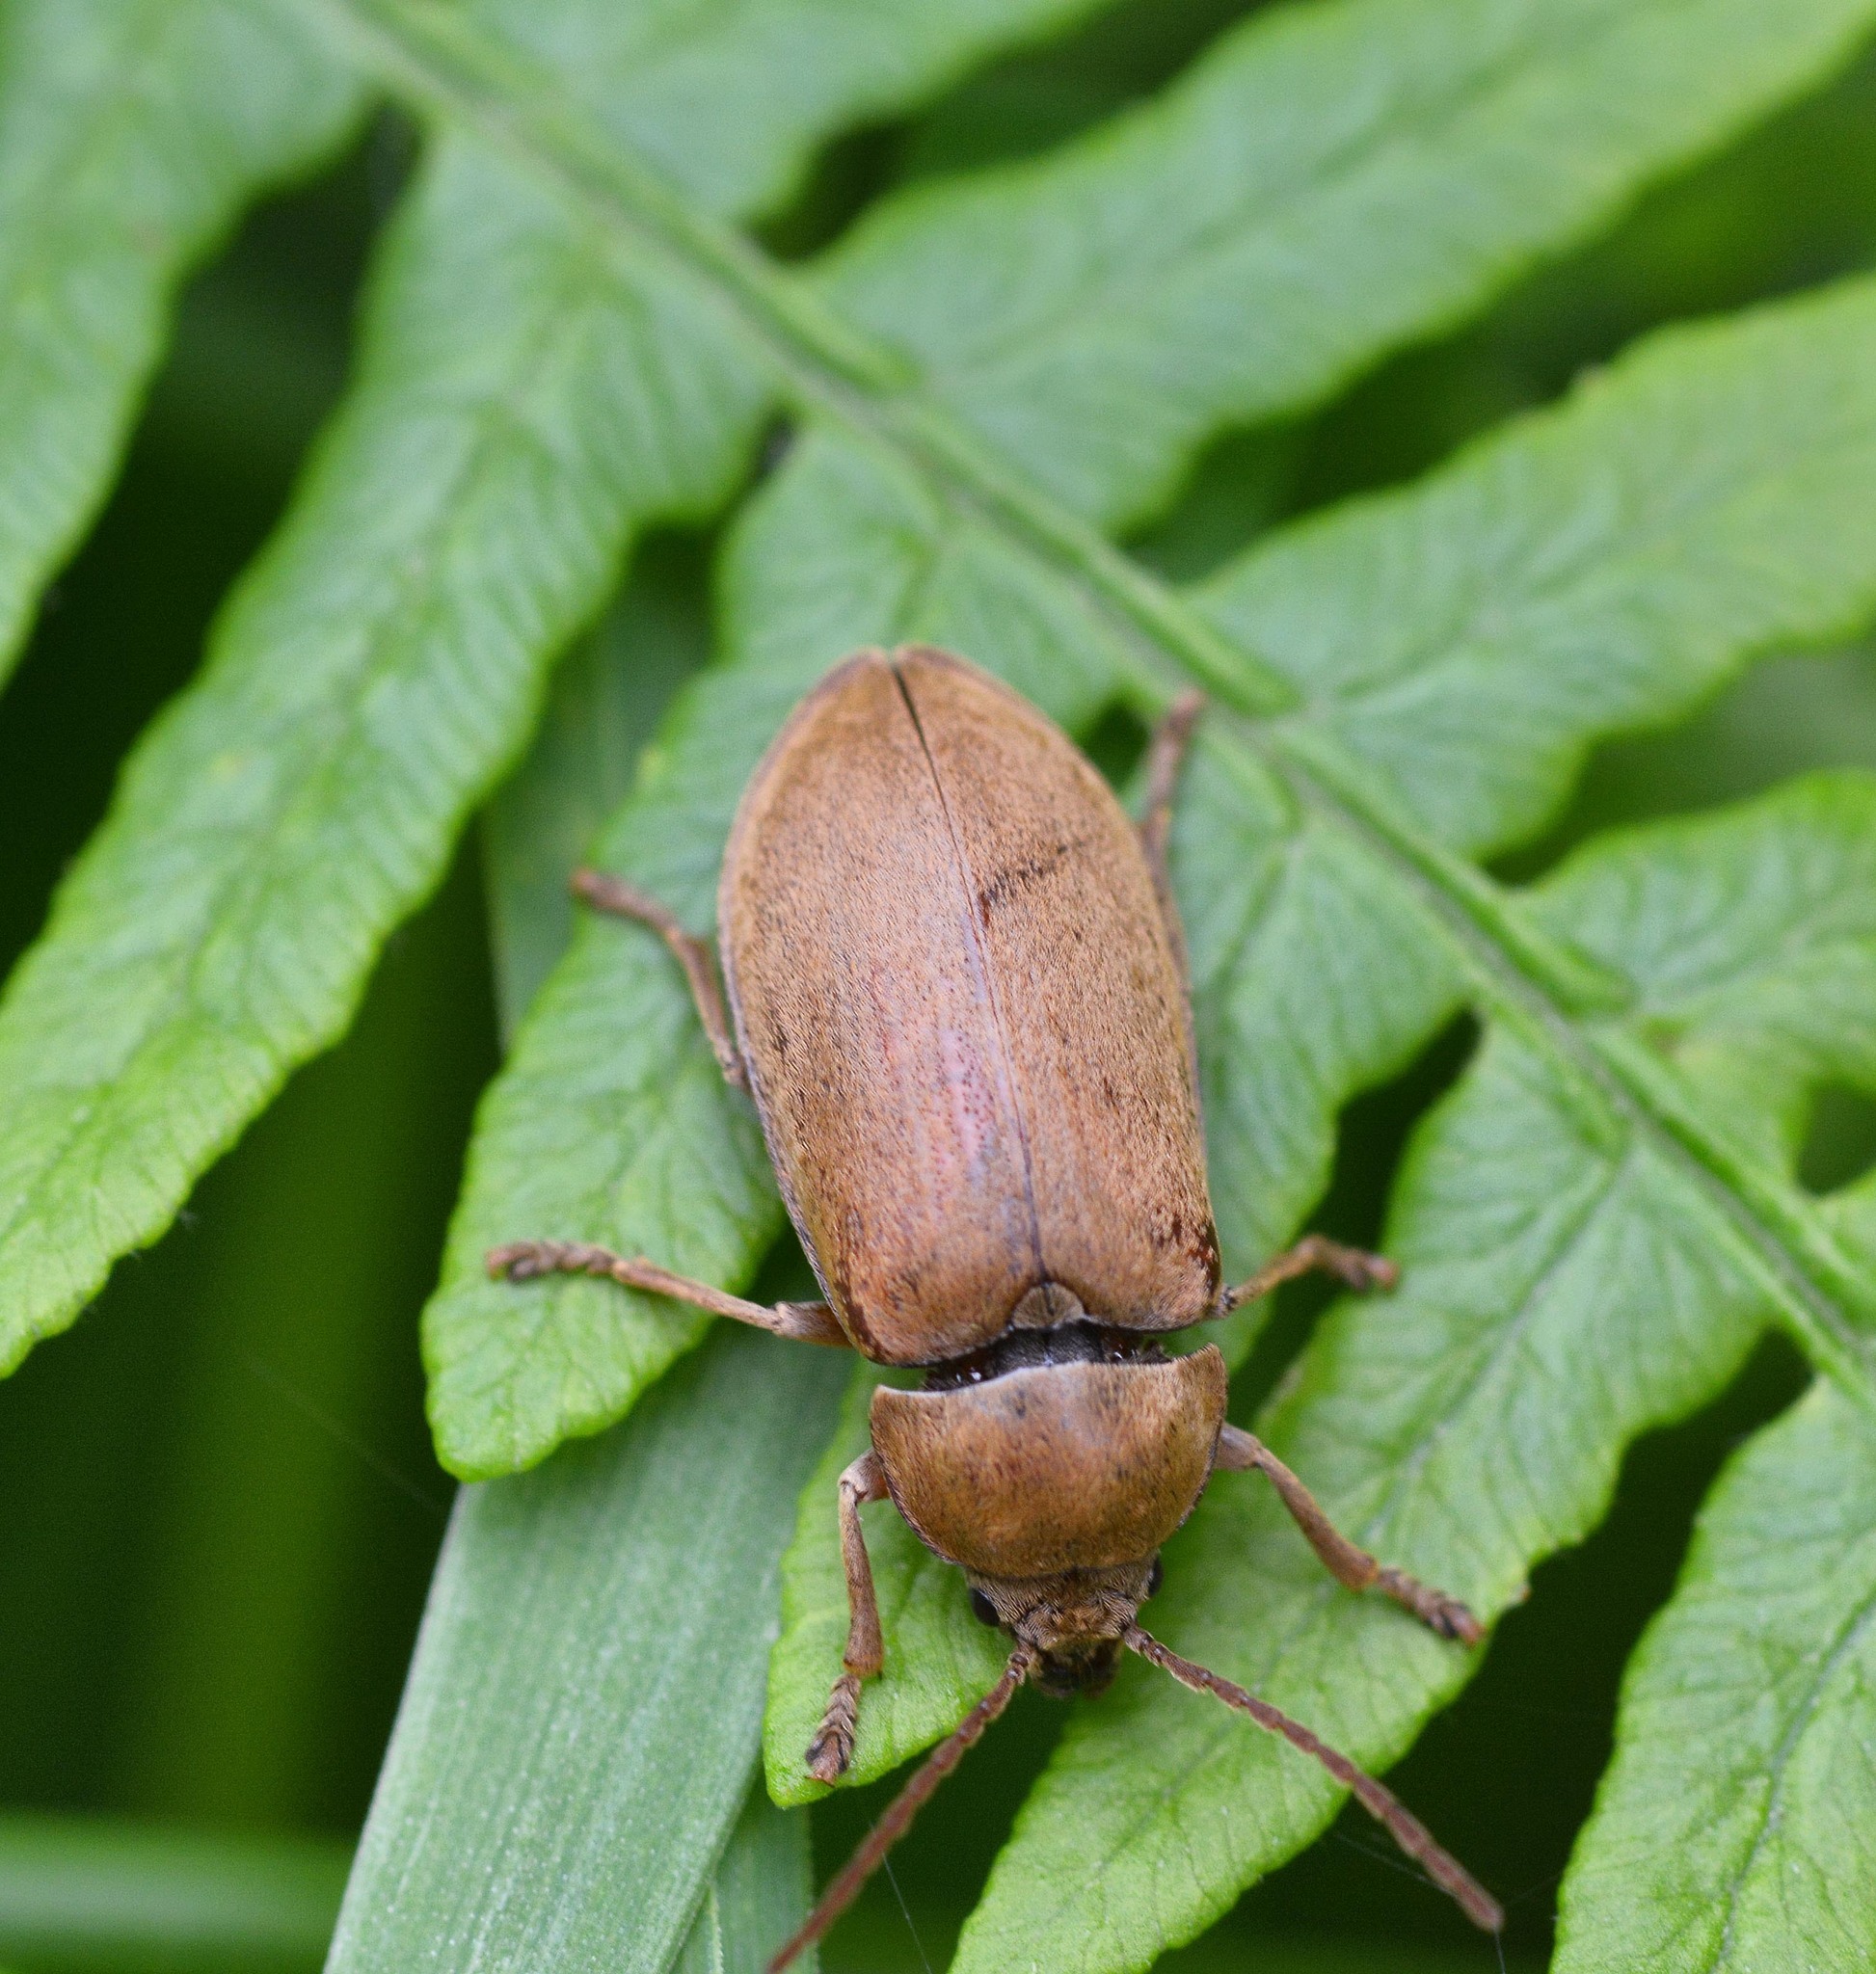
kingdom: Animalia
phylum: Arthropoda
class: Insecta
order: Coleoptera
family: Dascillidae
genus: Dascillus
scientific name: Dascillus cervinus
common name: Orchid beetle
